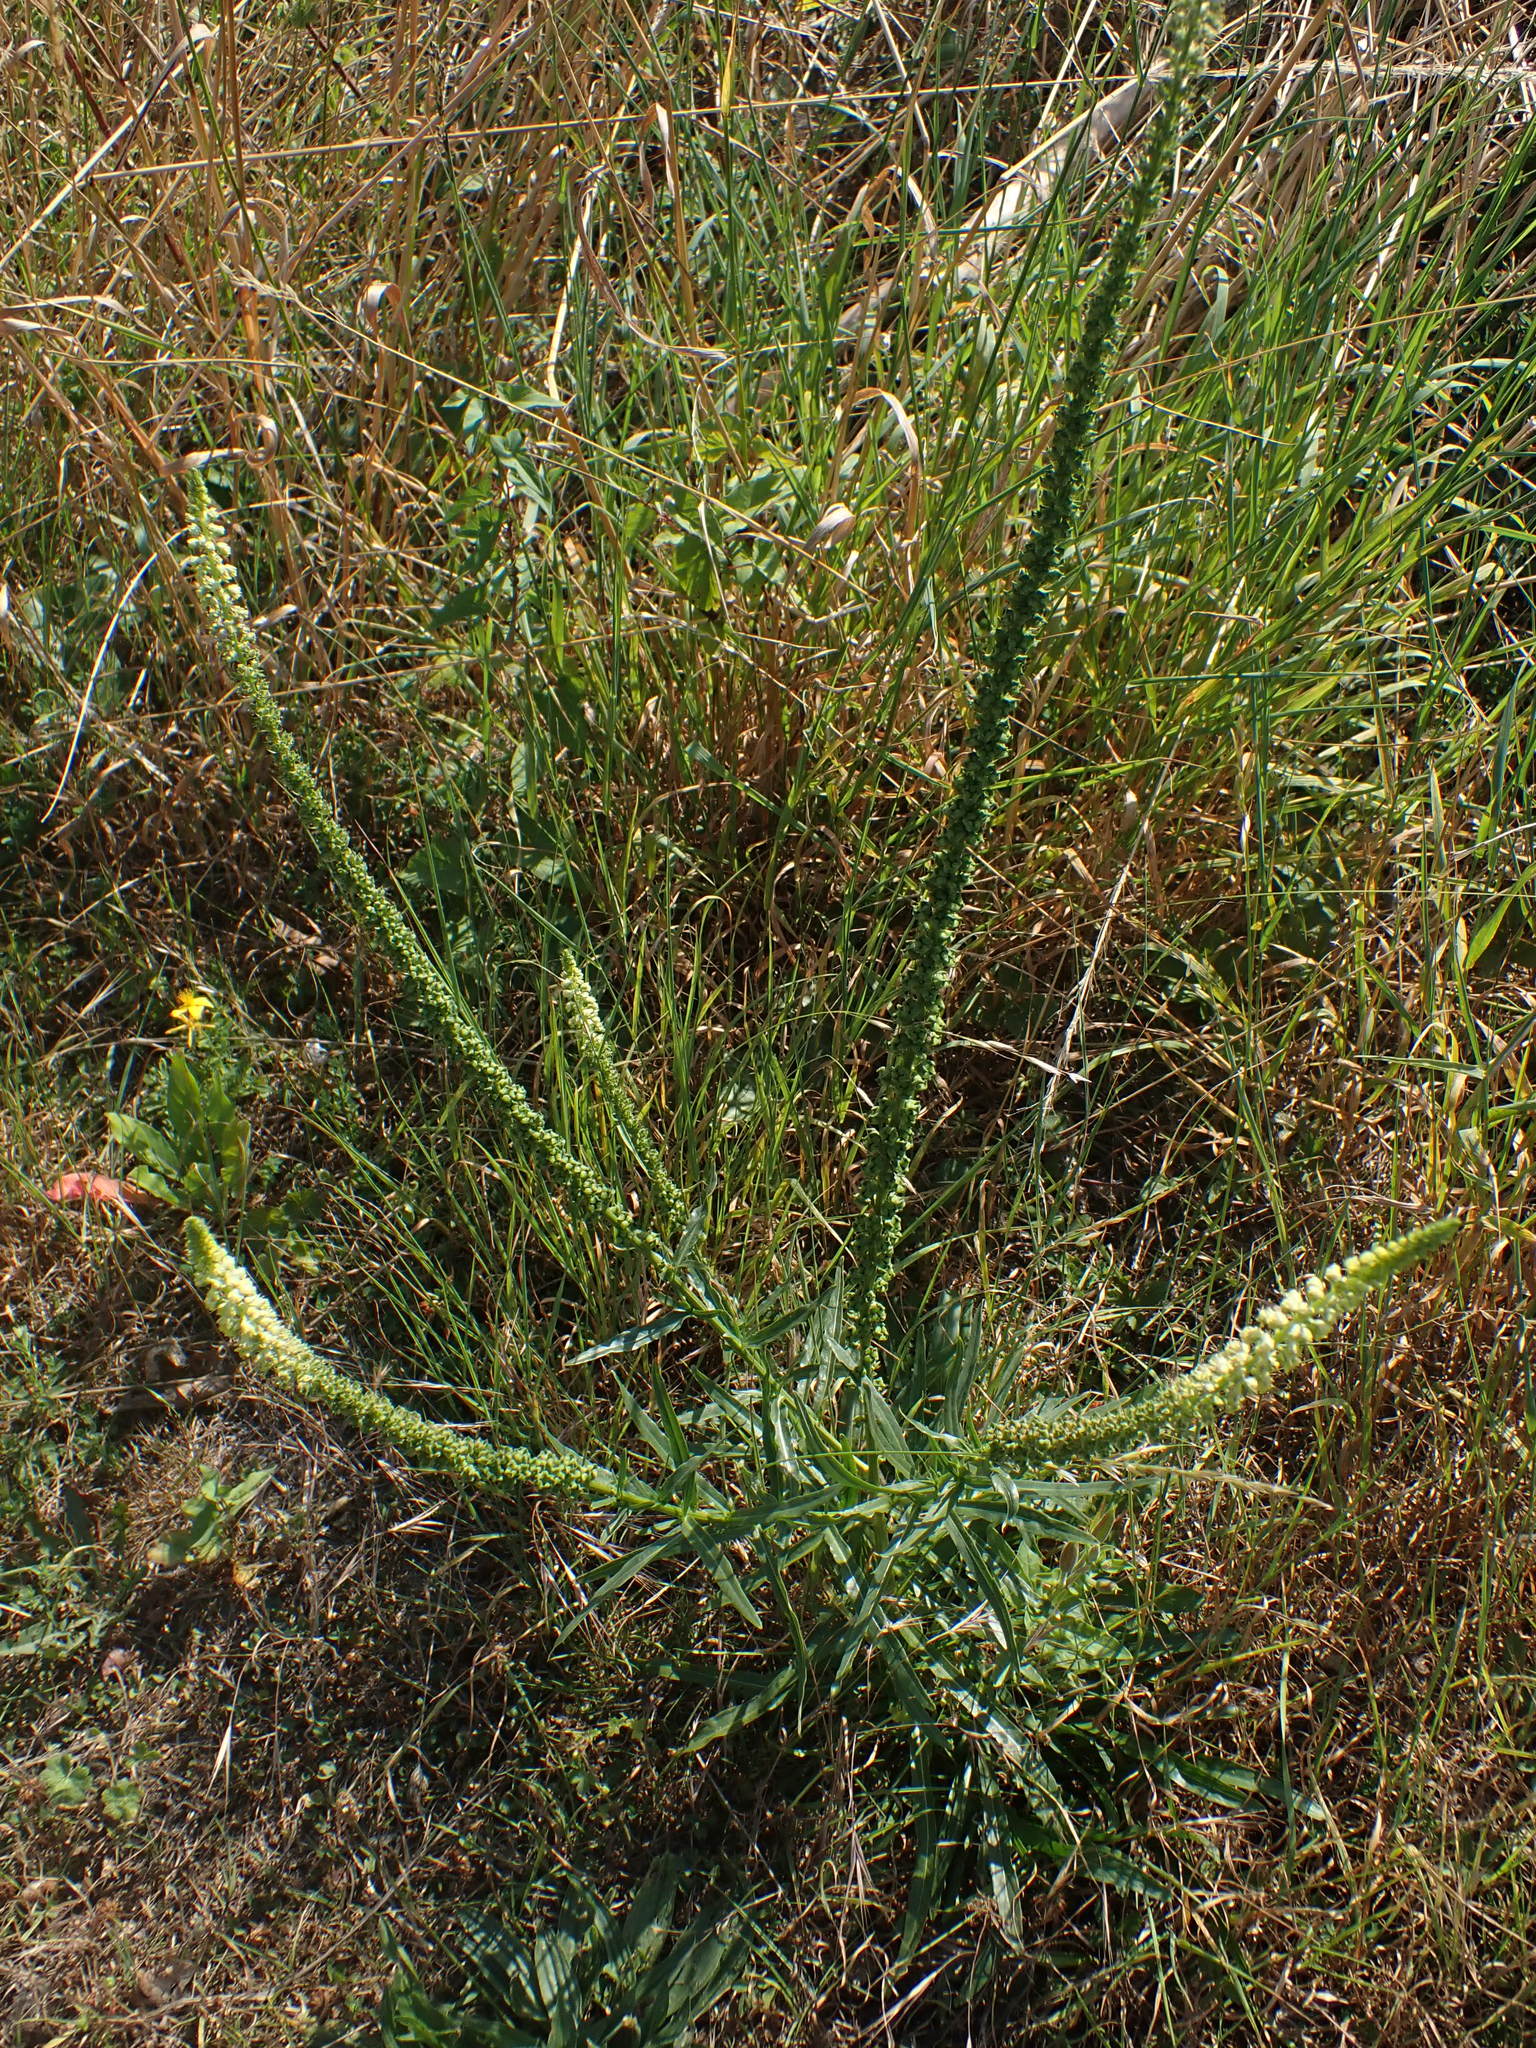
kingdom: Plantae
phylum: Tracheophyta
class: Magnoliopsida
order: Brassicales
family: Resedaceae
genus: Reseda
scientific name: Reseda luteola
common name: Weld
